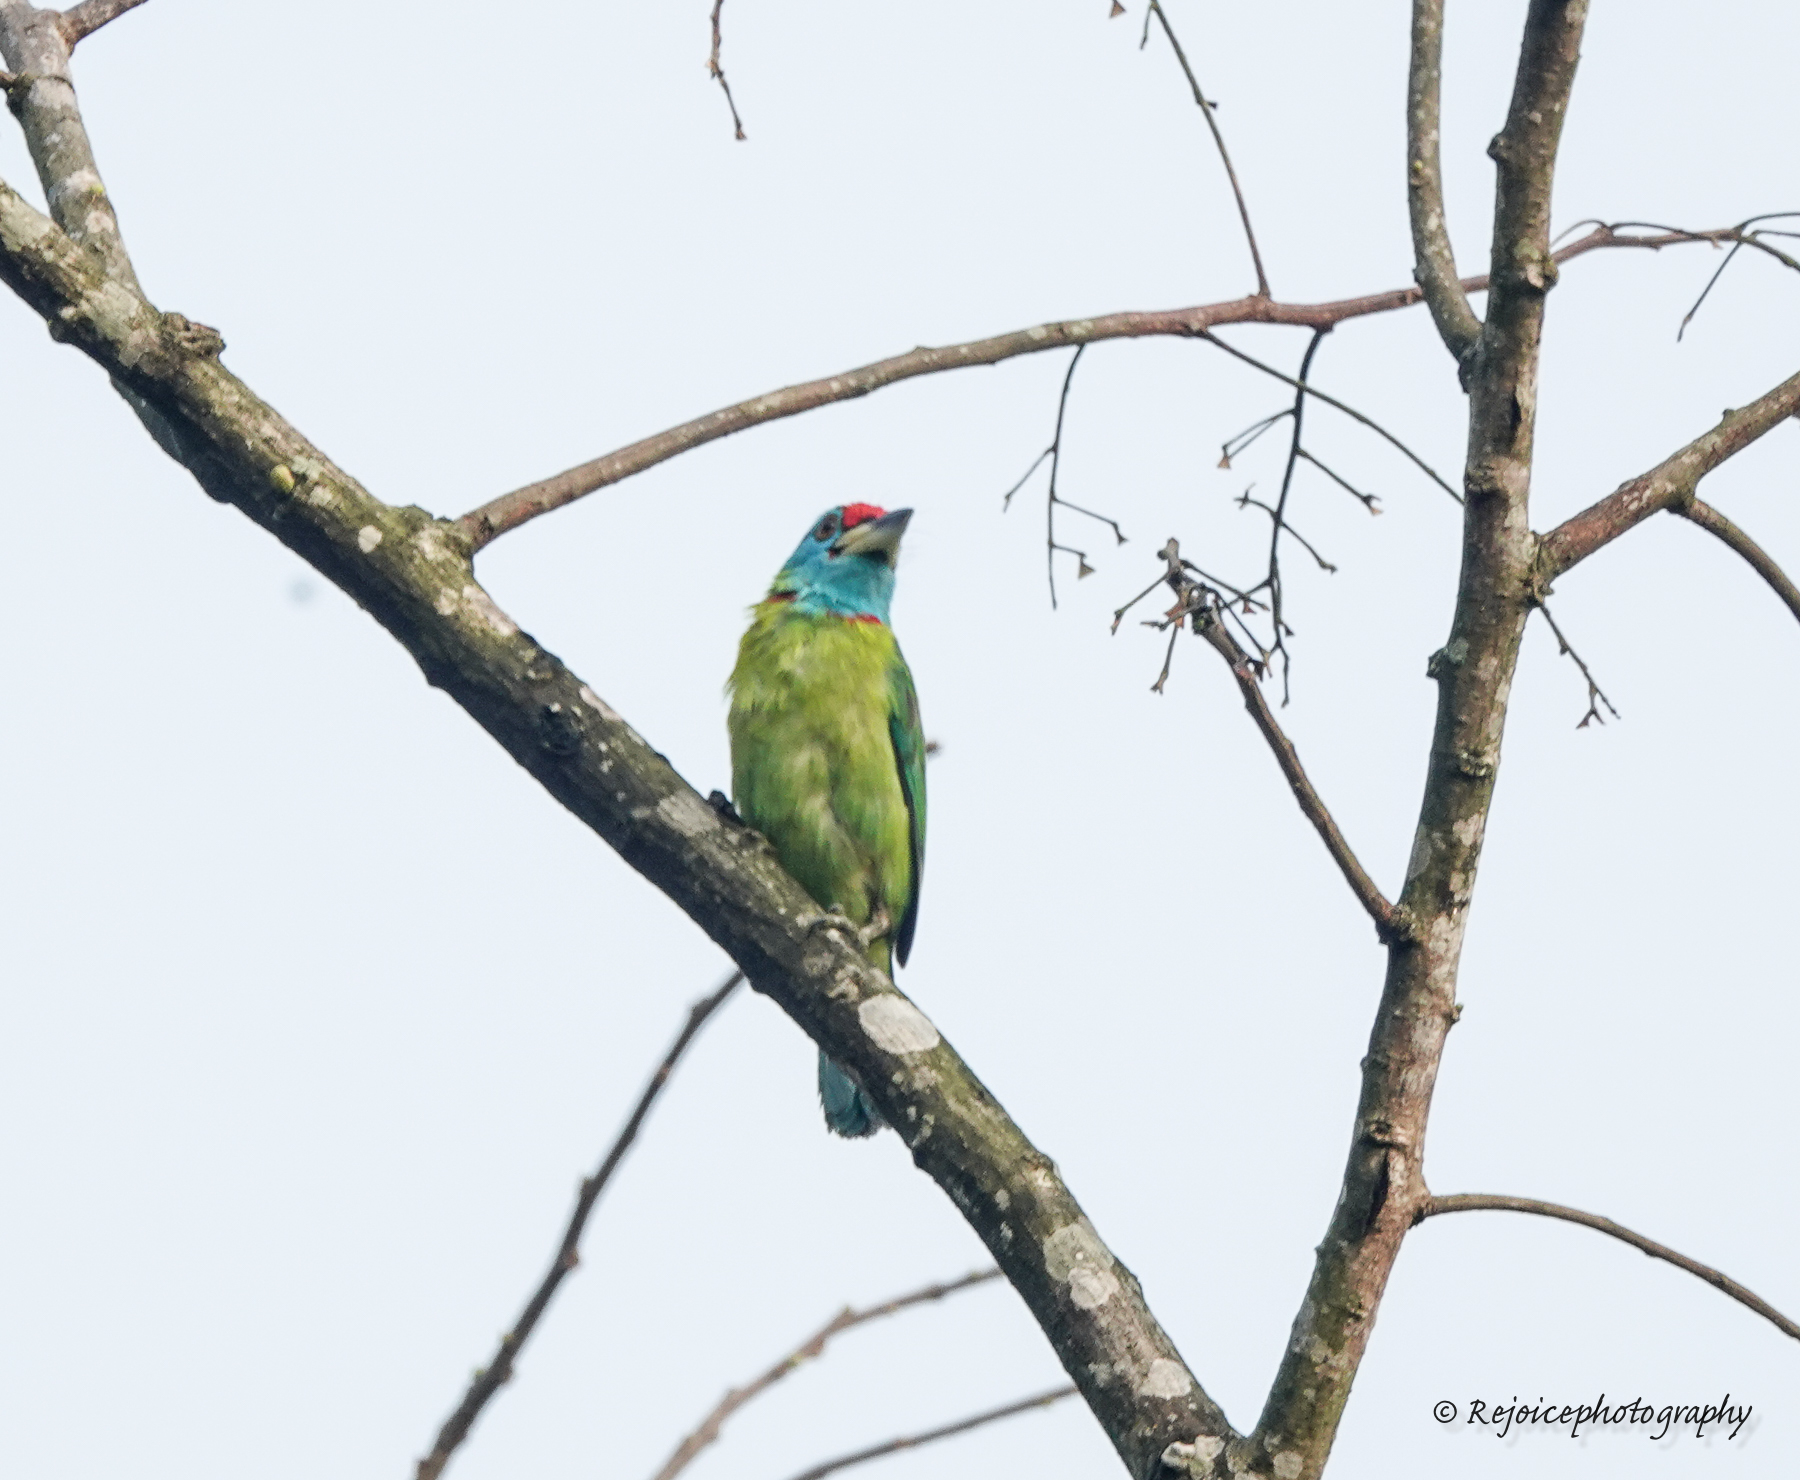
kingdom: Animalia
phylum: Chordata
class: Aves
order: Piciformes
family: Megalaimidae
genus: Psilopogon
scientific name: Psilopogon asiaticus
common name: Blue-throated barbet
